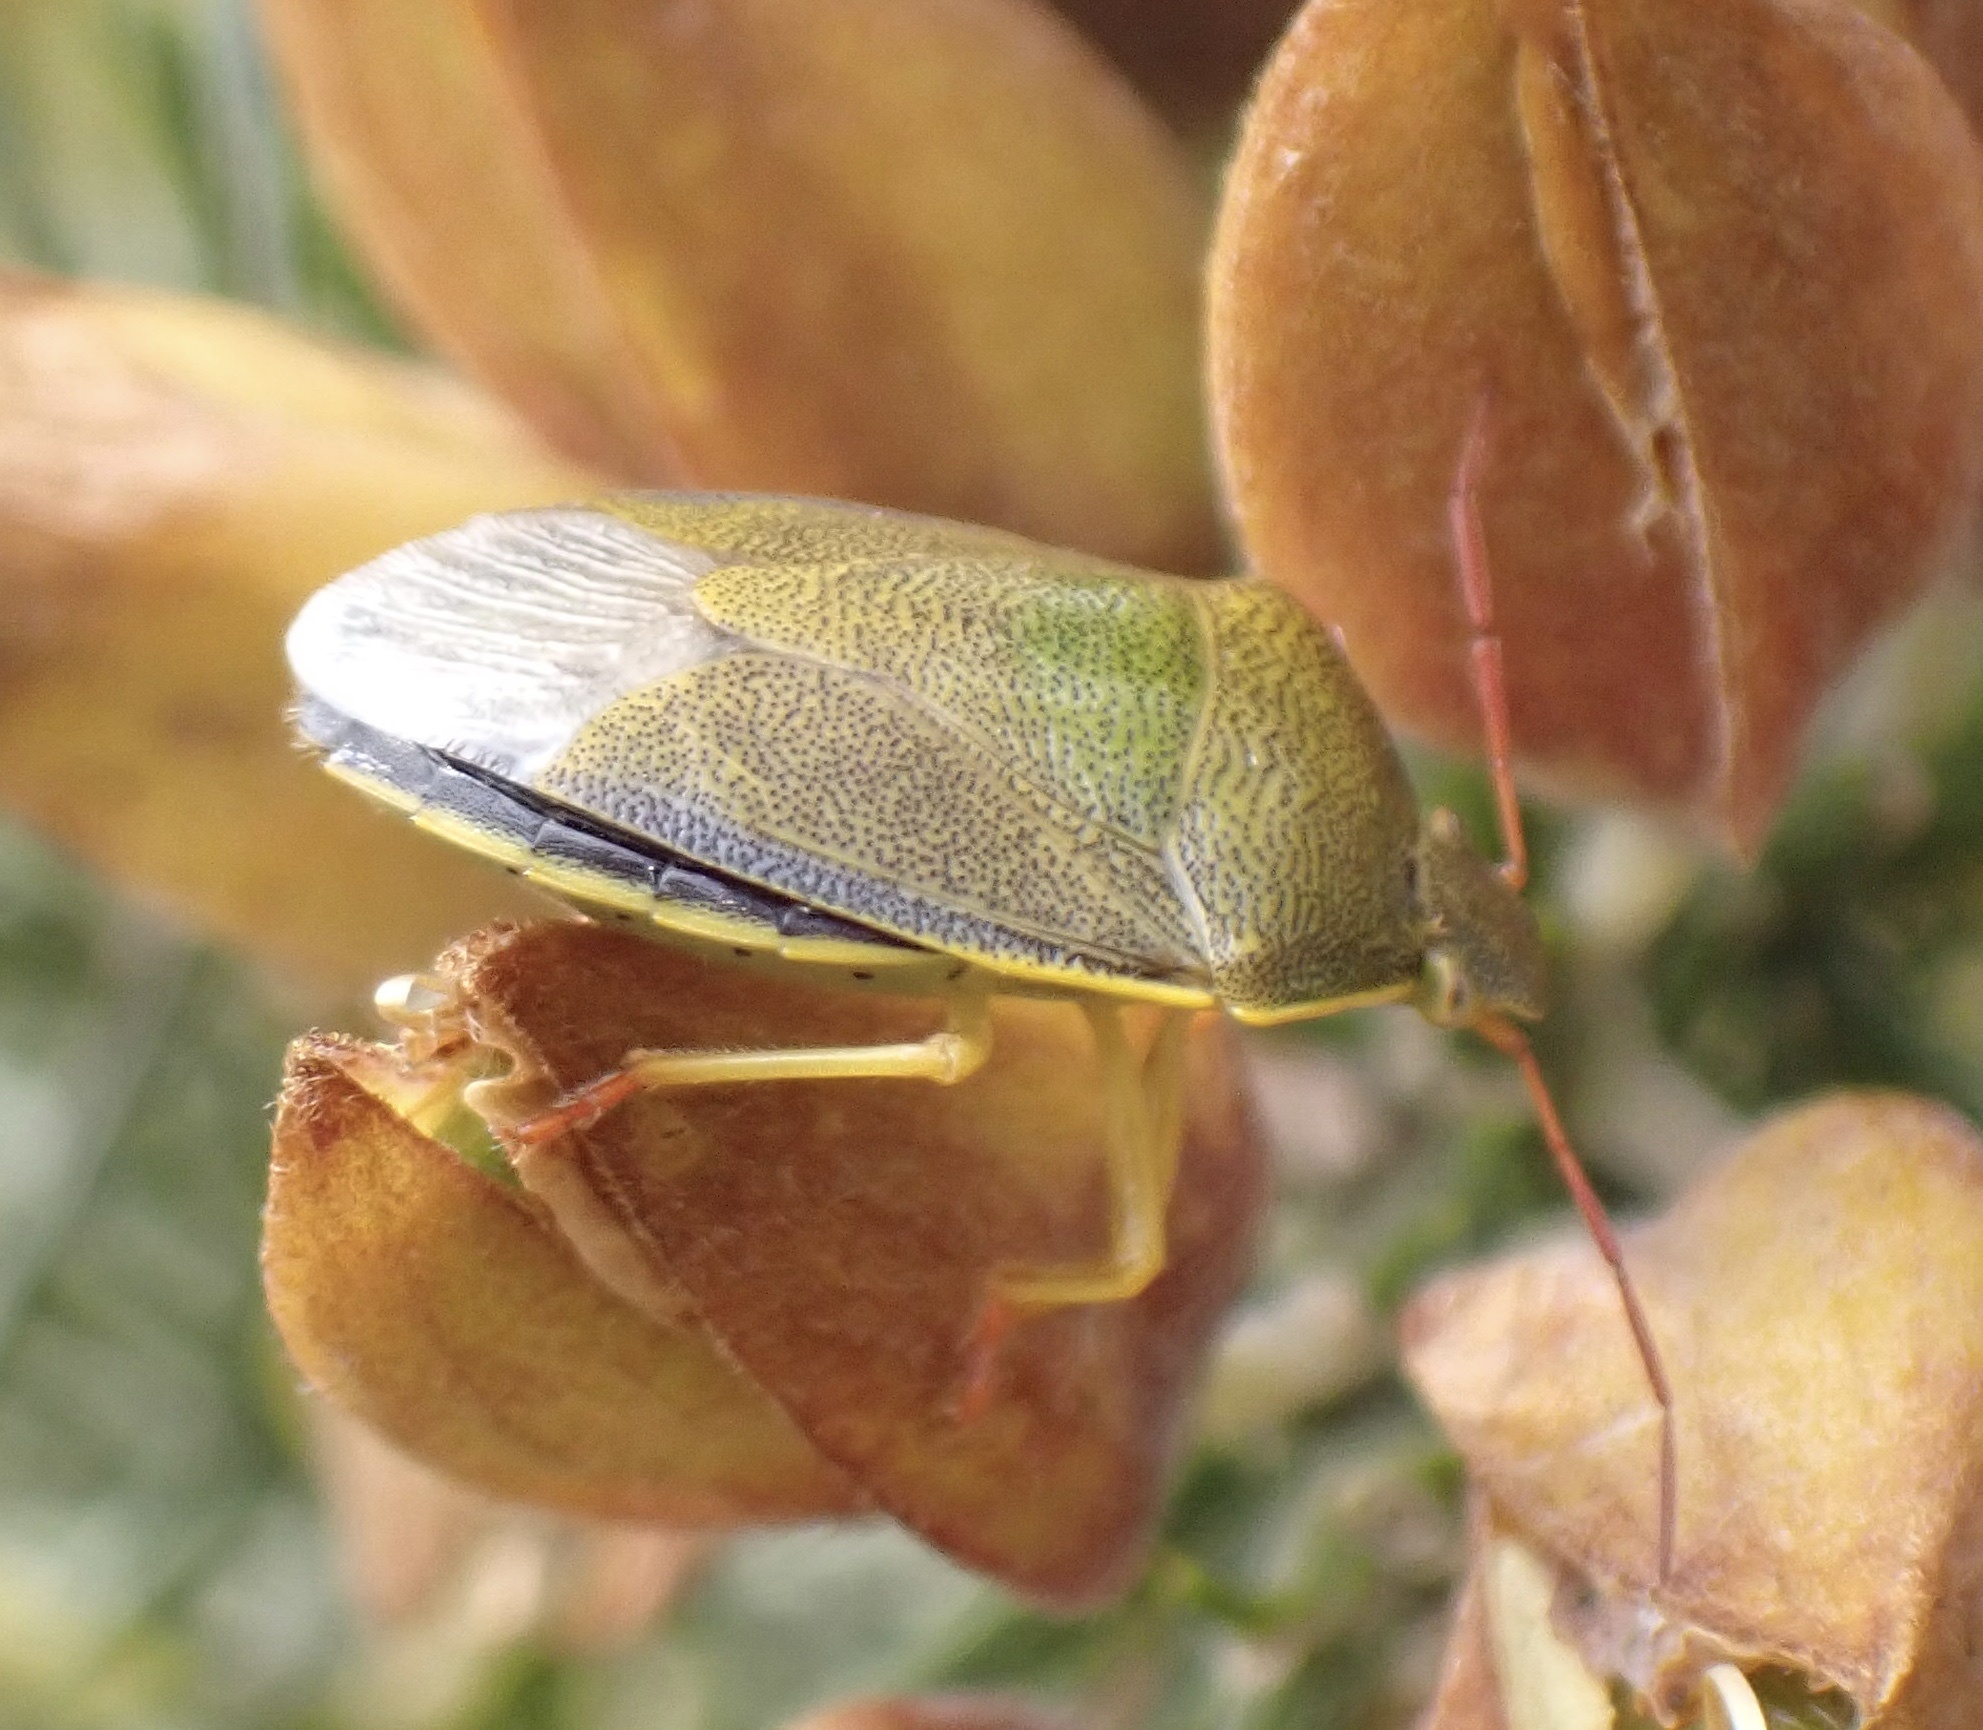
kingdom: Animalia
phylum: Arthropoda
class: Insecta
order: Hemiptera
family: Pentatomidae
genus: Piezodorus
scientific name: Piezodorus lituratus
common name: Stink bug
